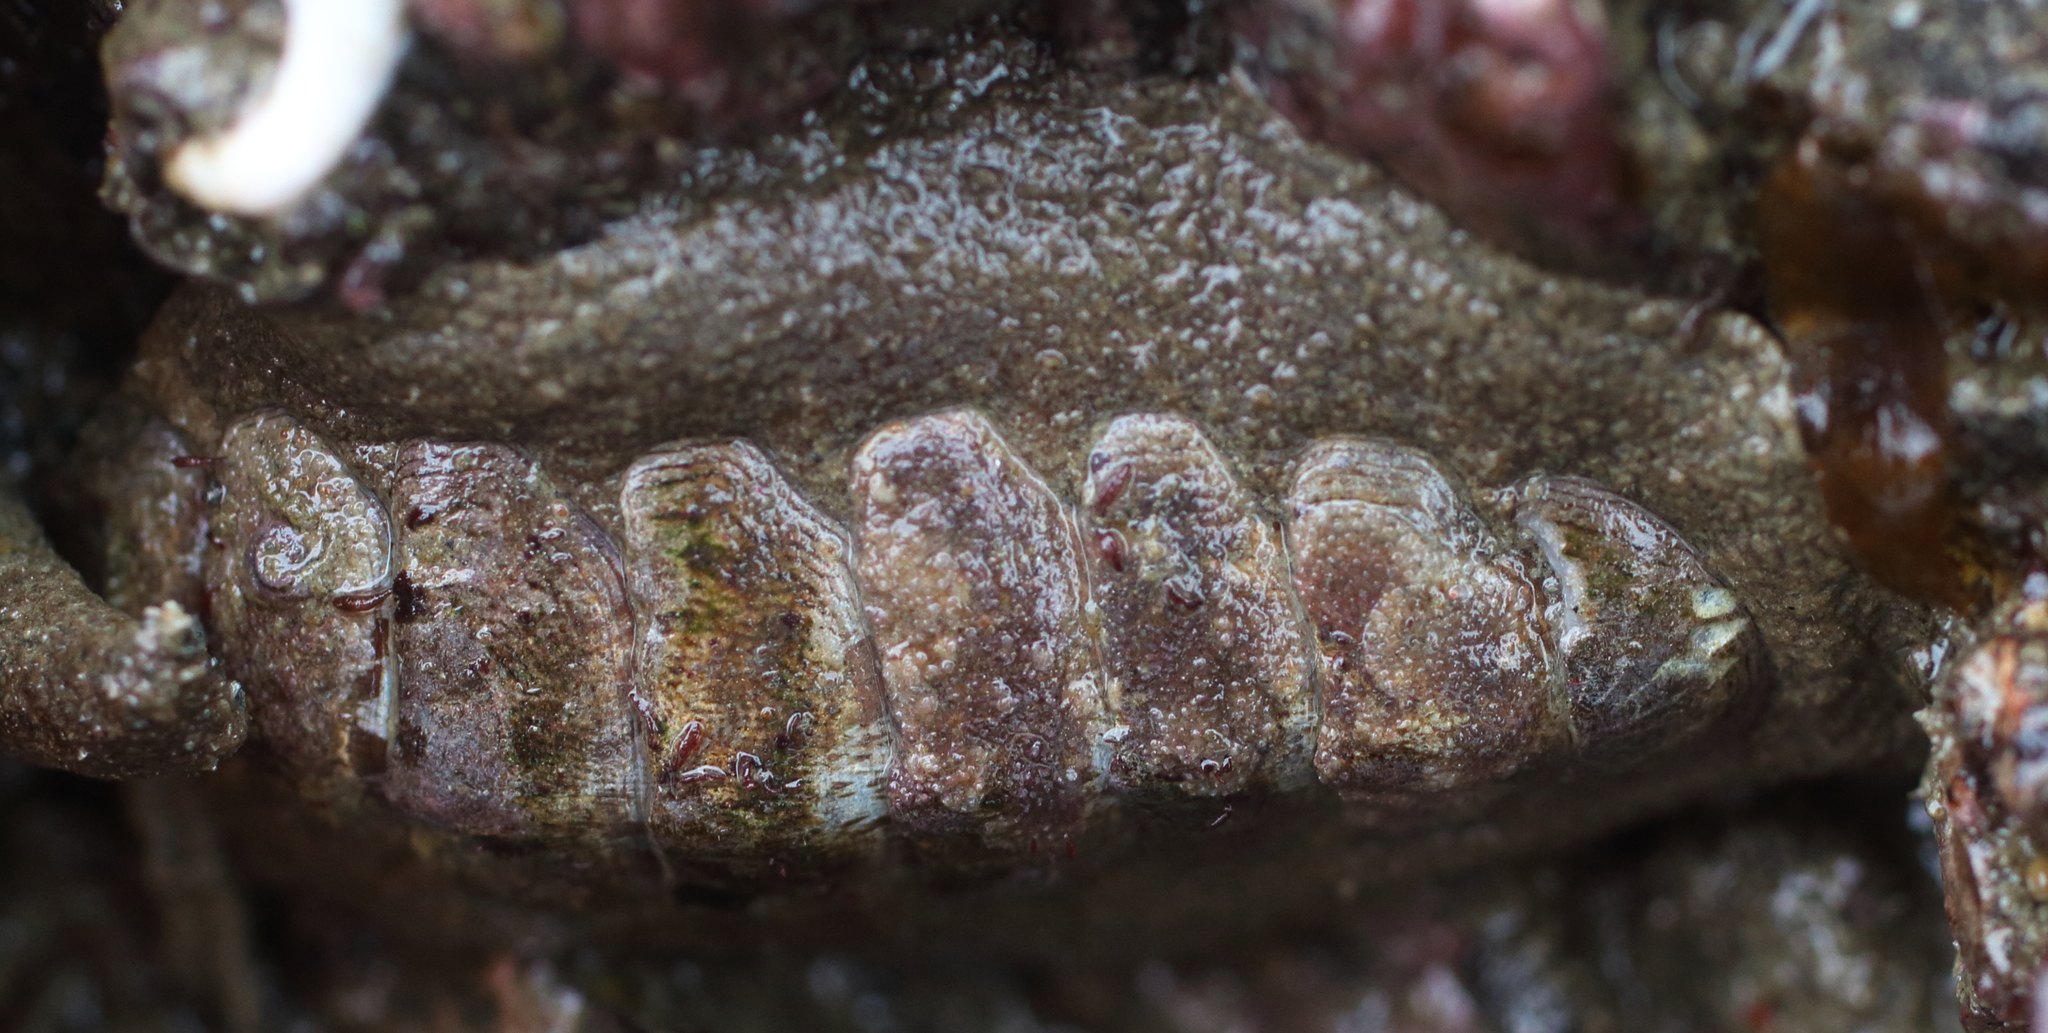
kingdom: Animalia
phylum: Mollusca
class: Polyplacophora
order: Chitonida
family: Mopaliidae
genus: Mopalia
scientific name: Mopalia hindsii
